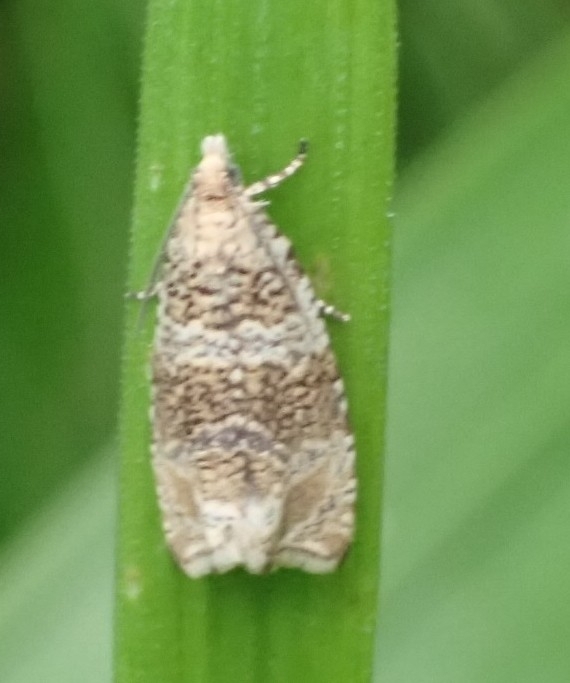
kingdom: Animalia
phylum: Arthropoda
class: Insecta
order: Lepidoptera
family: Tortricidae
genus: Syricoris
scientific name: Syricoris lacunana
